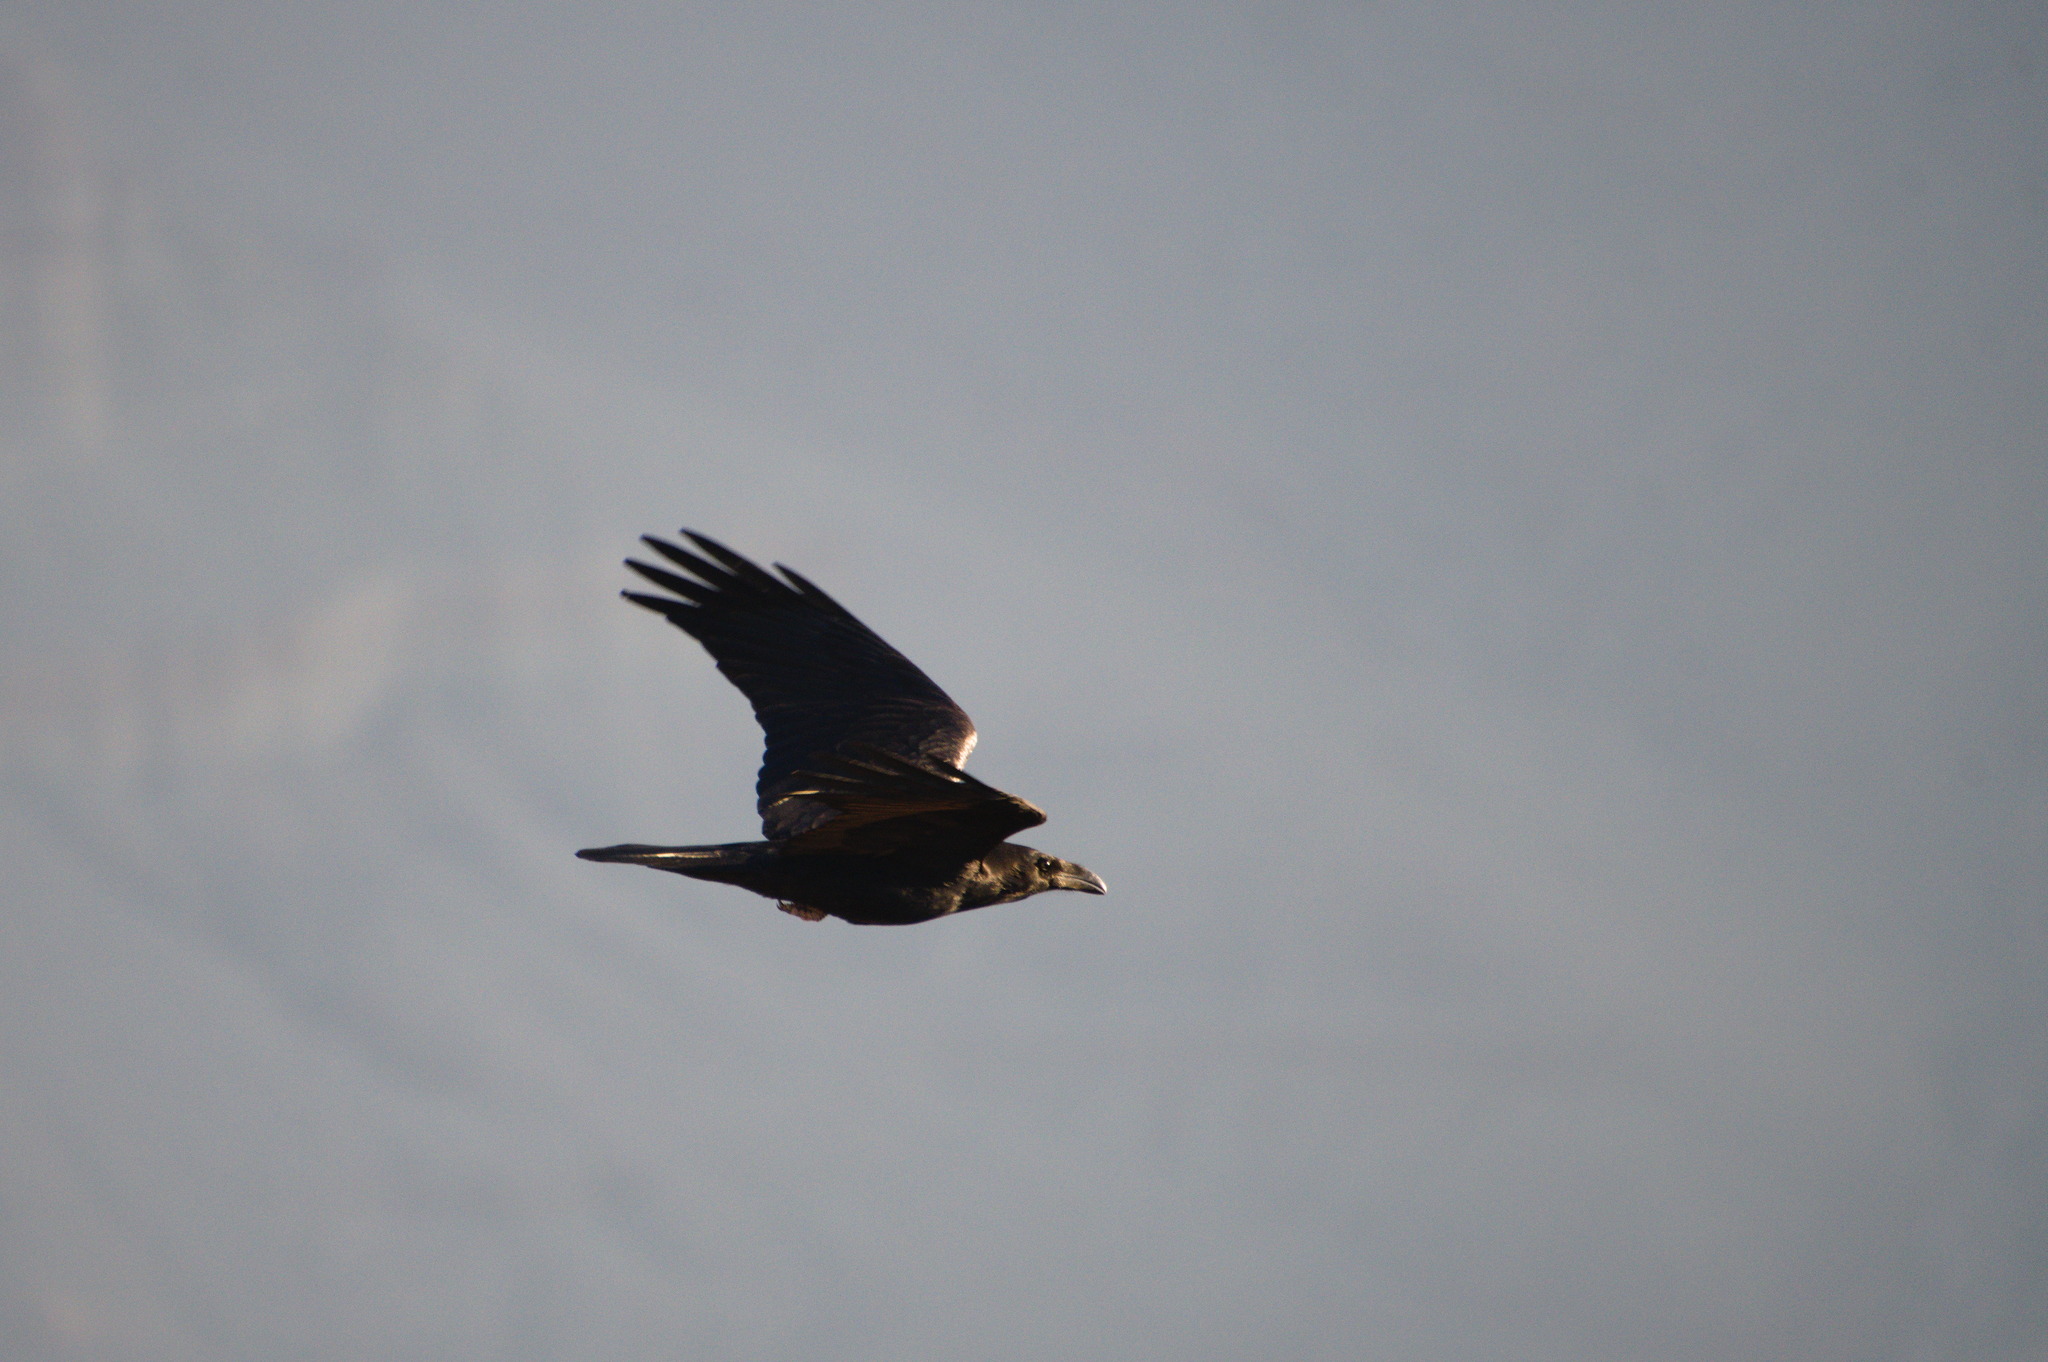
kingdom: Animalia
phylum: Chordata
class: Aves
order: Passeriformes
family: Corvidae
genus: Corvus
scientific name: Corvus corax
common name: Common raven
